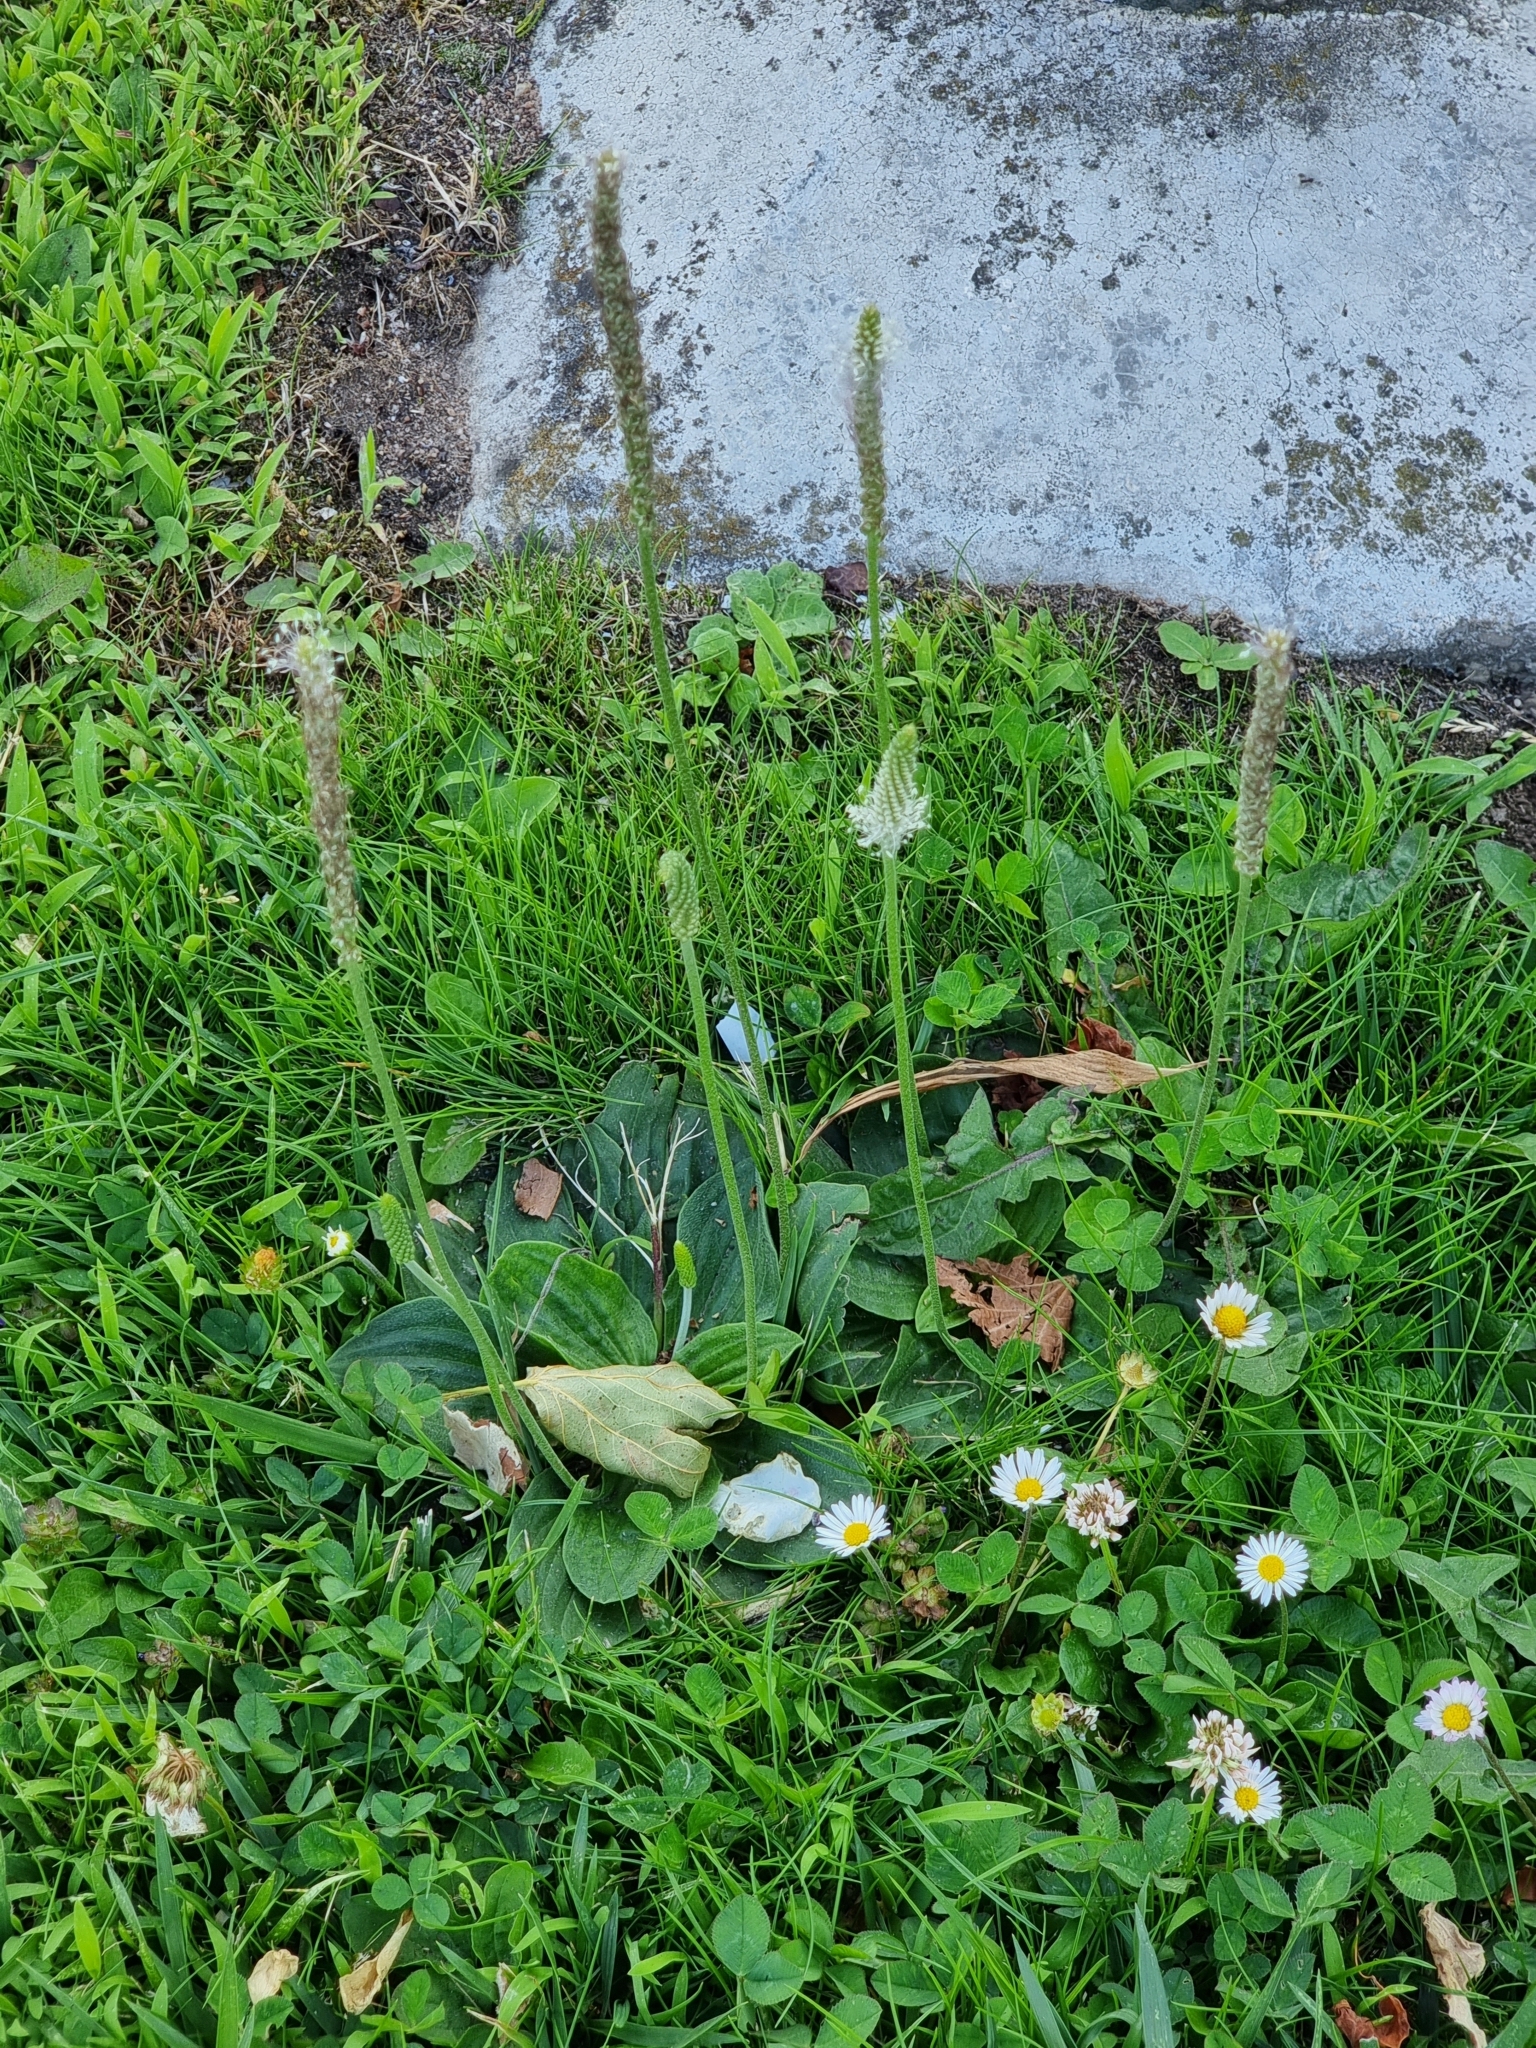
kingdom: Plantae
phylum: Tracheophyta
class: Magnoliopsida
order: Lamiales
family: Plantaginaceae
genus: Plantago
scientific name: Plantago media
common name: Hoary plantain
